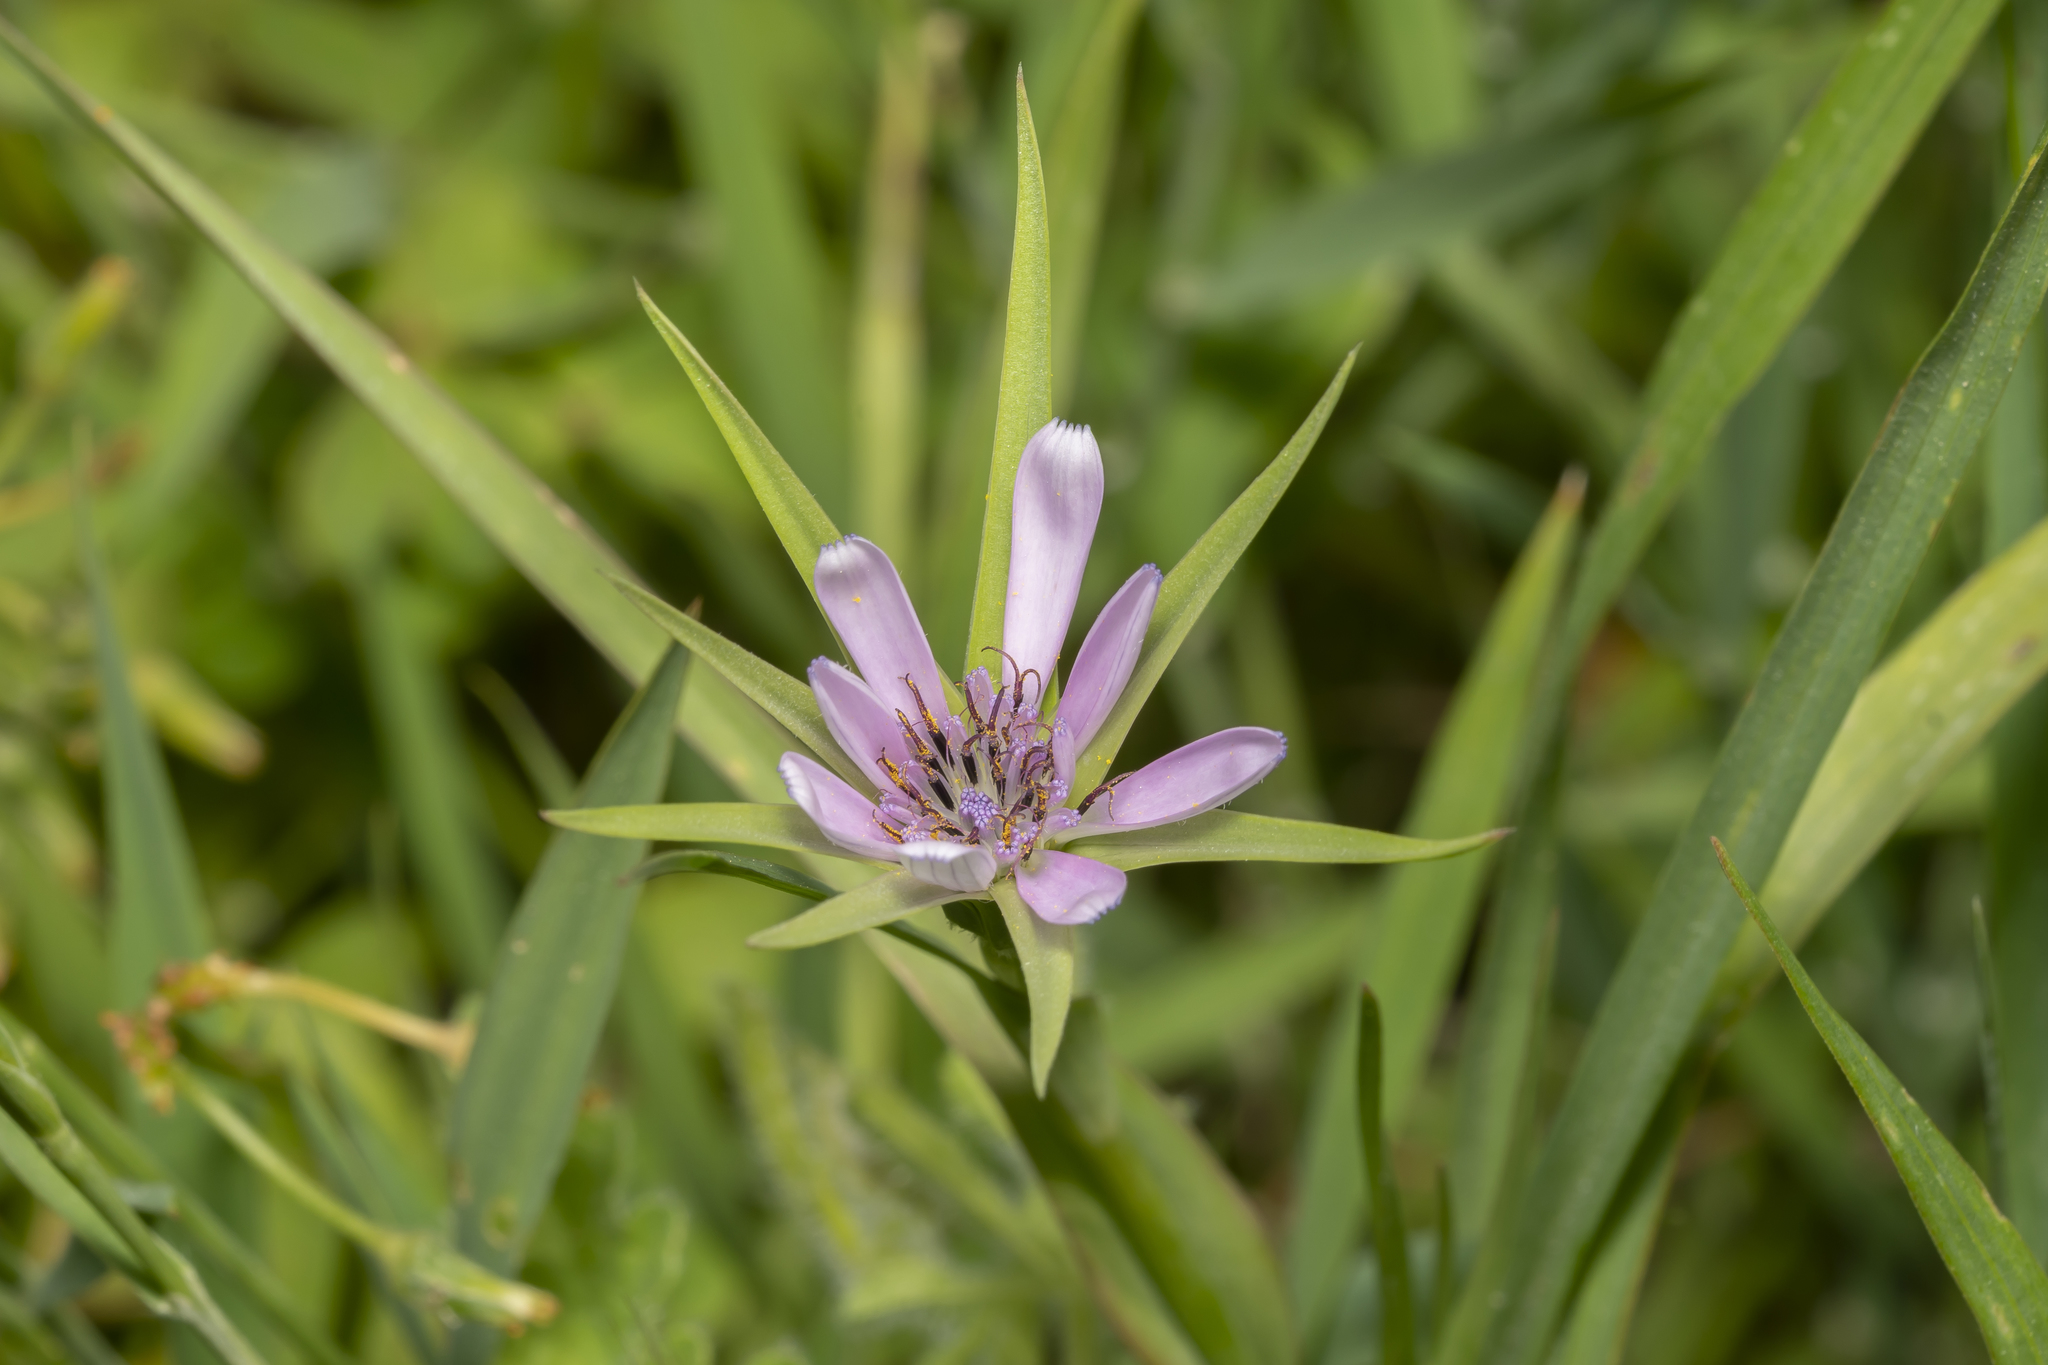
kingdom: Plantae
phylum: Tracheophyta
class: Magnoliopsida
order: Asterales
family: Asteraceae
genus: Geropogon
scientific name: Geropogon hybridus
